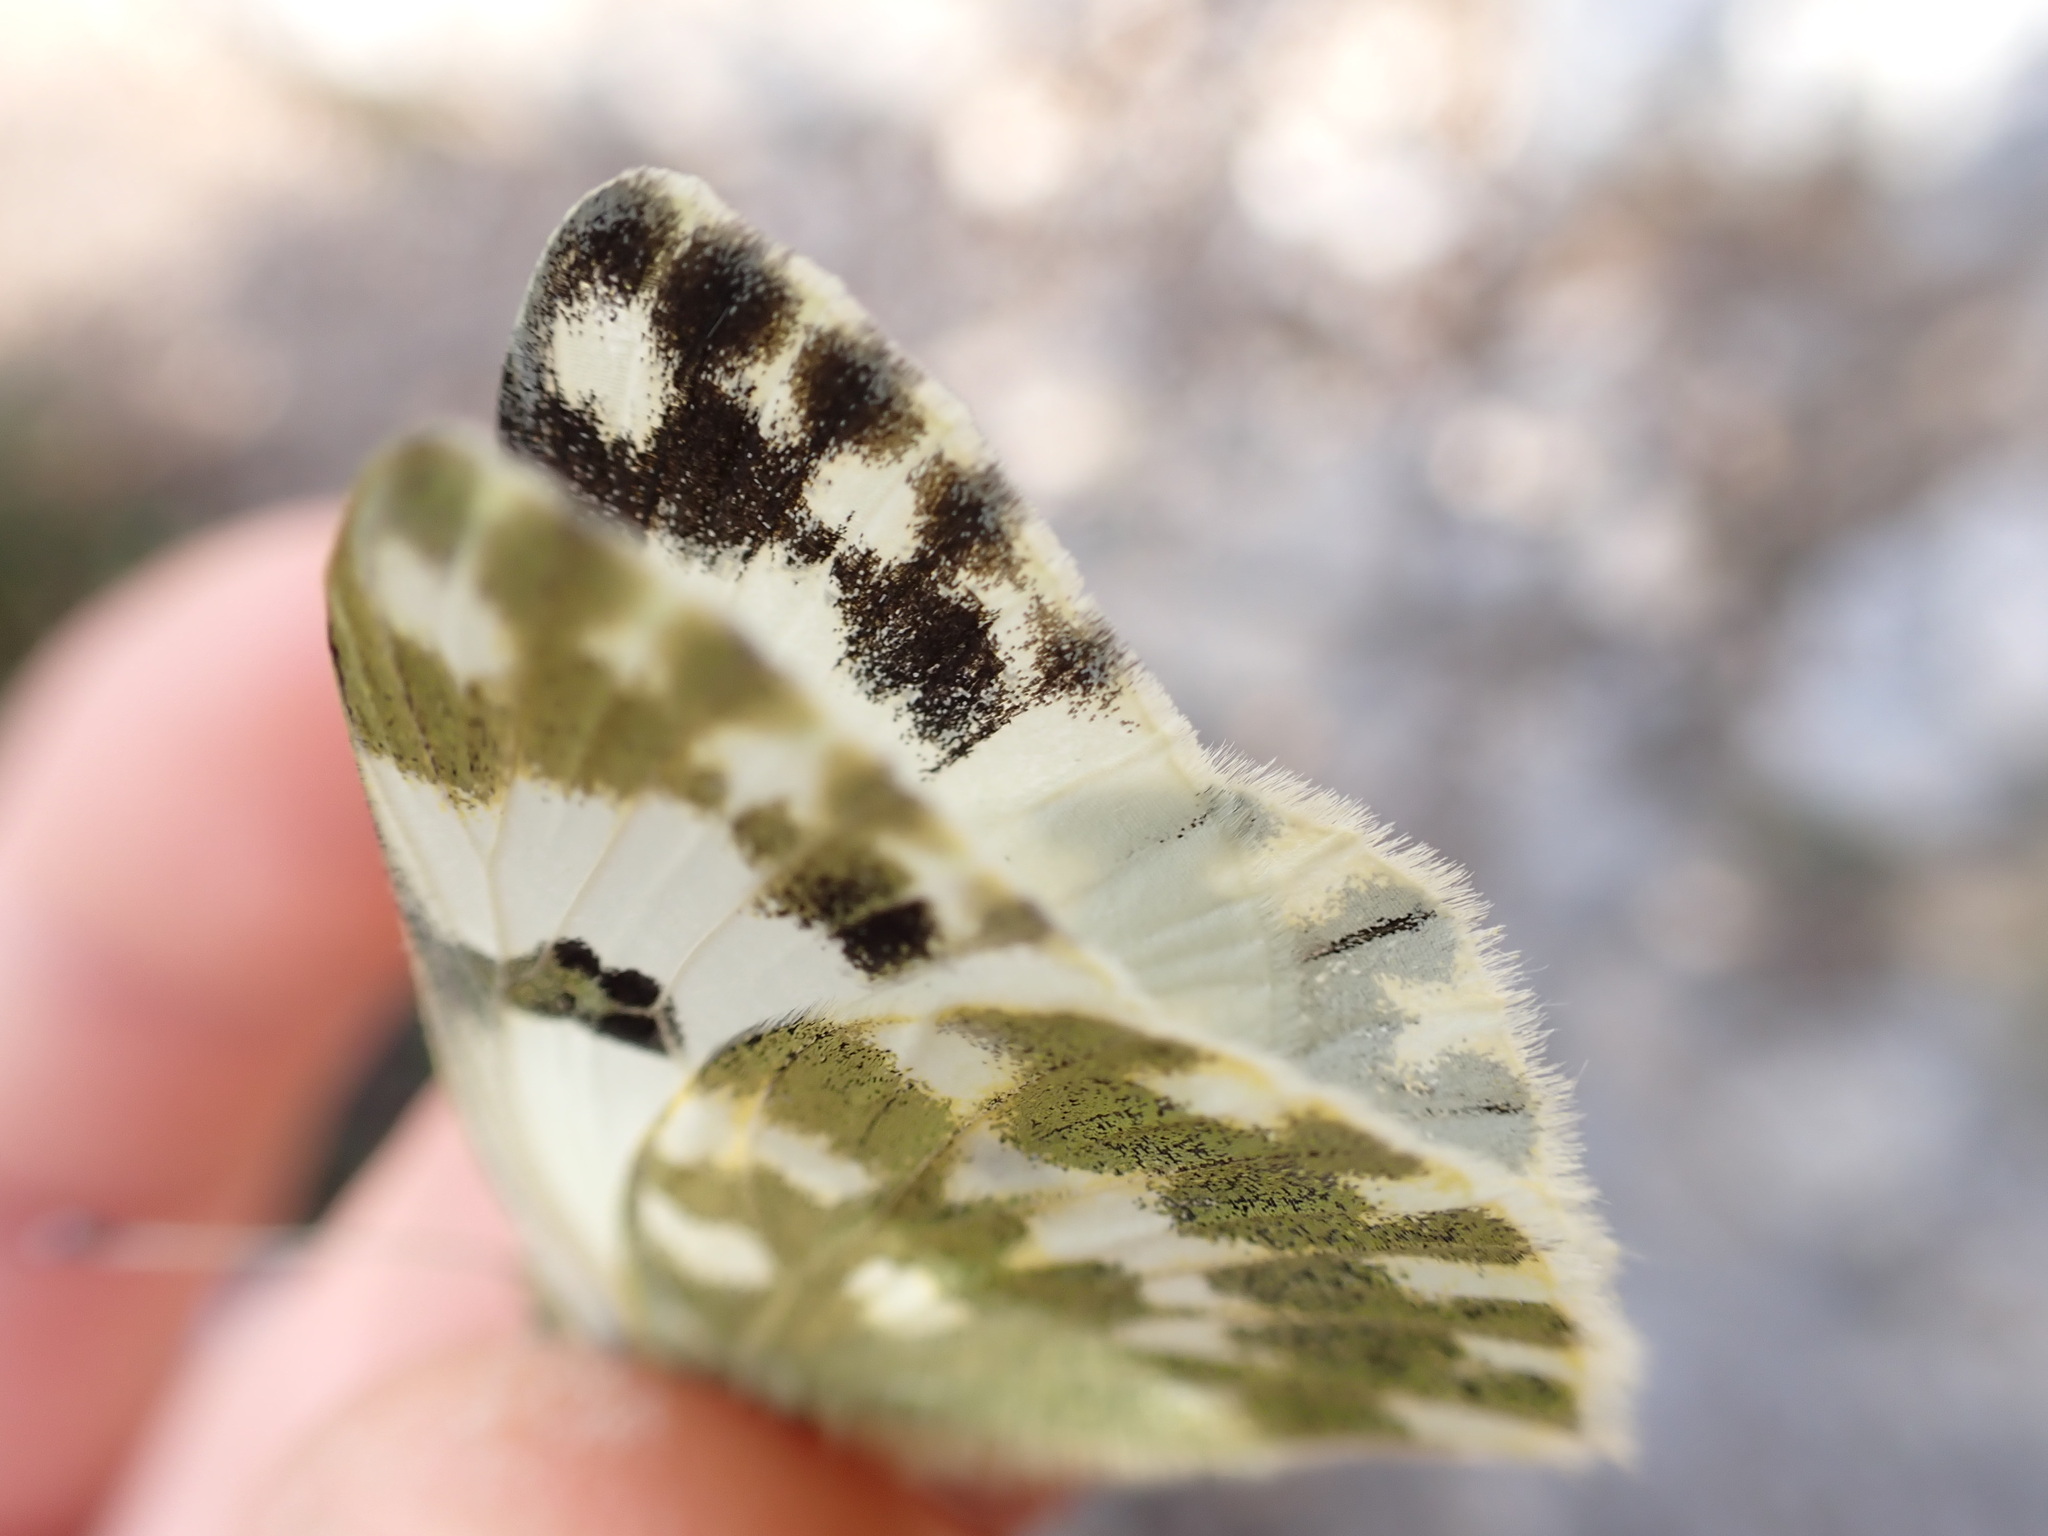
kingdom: Animalia
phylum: Arthropoda
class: Insecta
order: Lepidoptera
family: Pieridae
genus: Pontia
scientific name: Pontia daplidice
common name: Bath white
